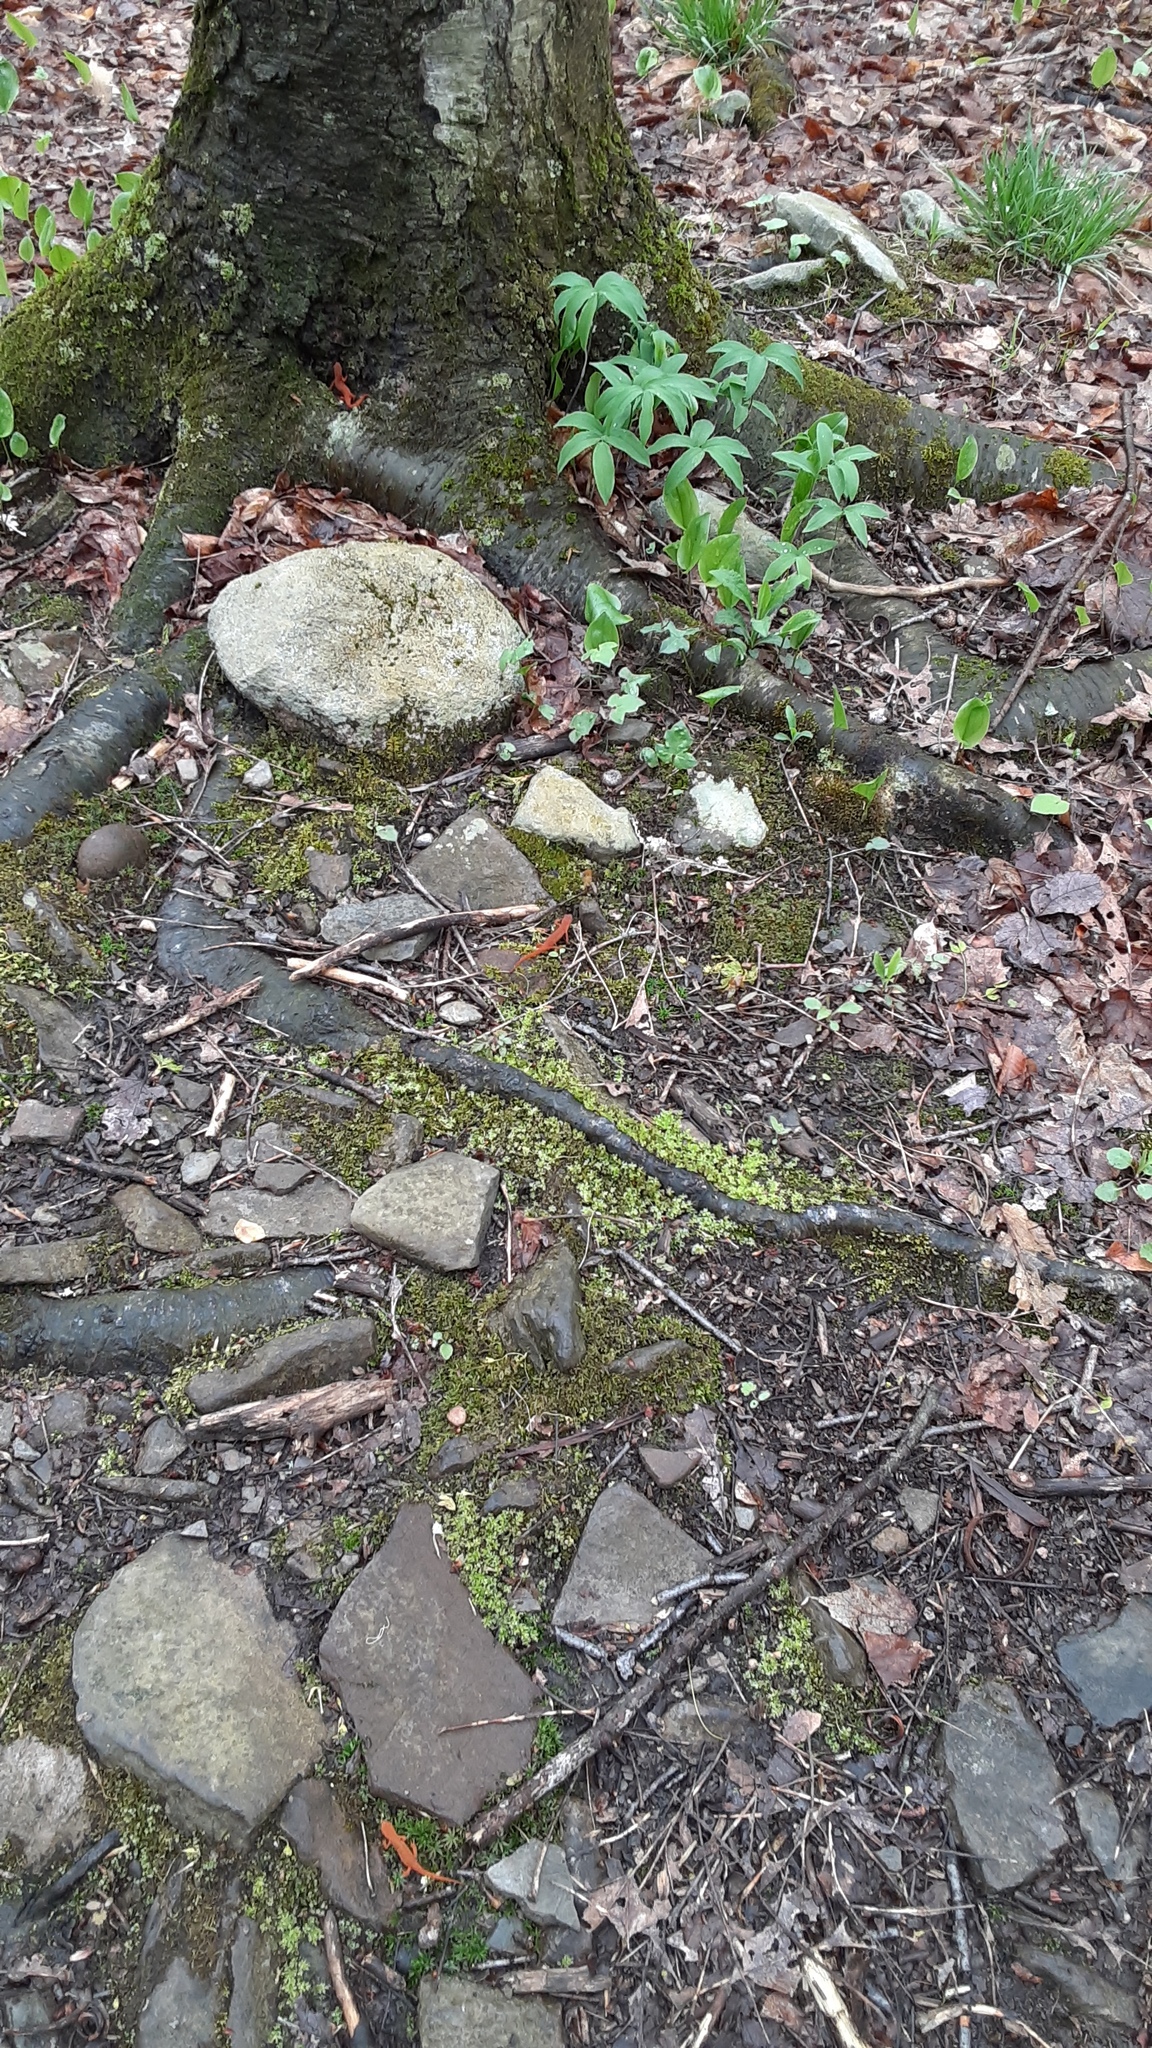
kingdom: Animalia
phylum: Chordata
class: Amphibia
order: Caudata
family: Salamandridae
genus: Notophthalmus
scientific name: Notophthalmus viridescens
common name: Eastern newt
